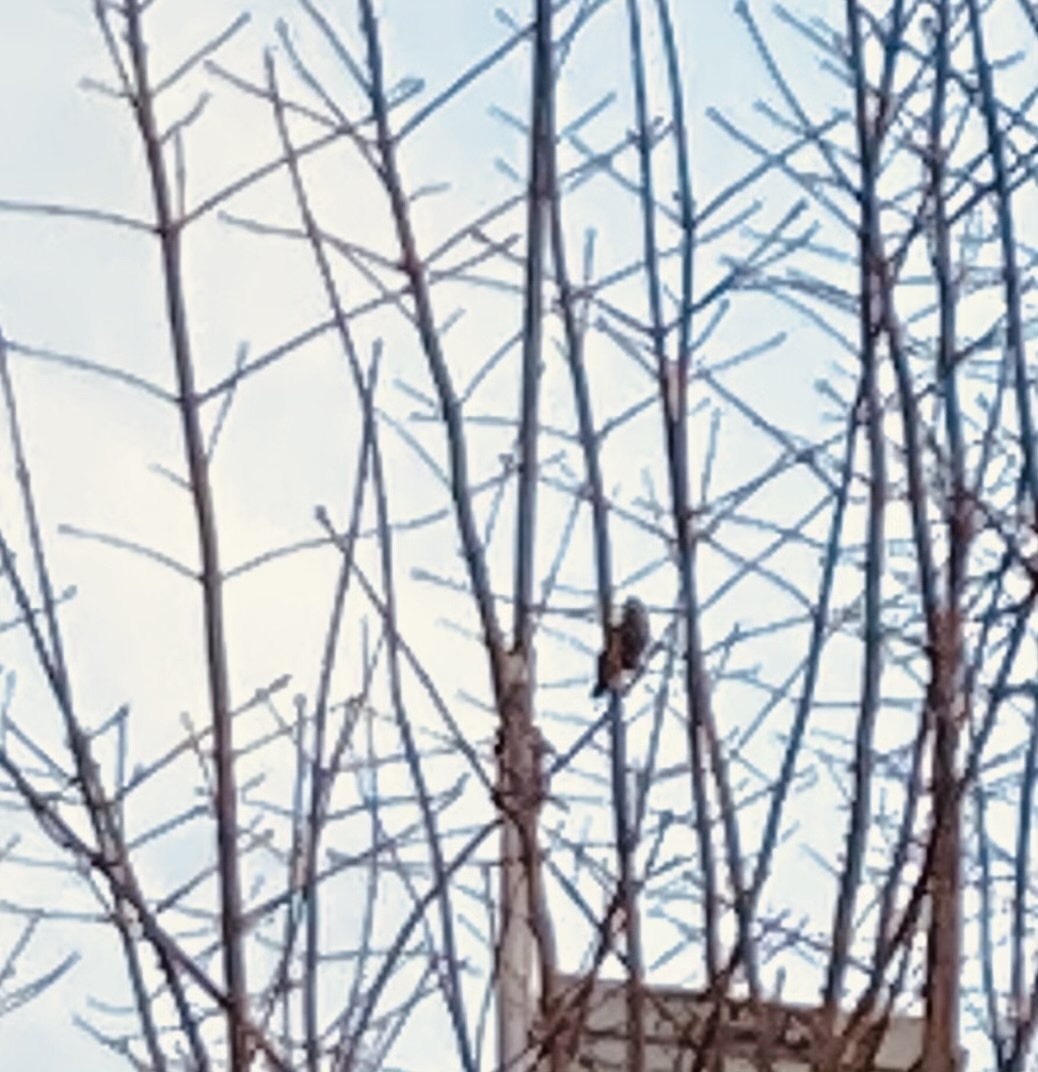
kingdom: Animalia
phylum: Chordata
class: Aves
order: Passeriformes
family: Turdidae
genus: Turdus
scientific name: Turdus merula
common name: Common blackbird
